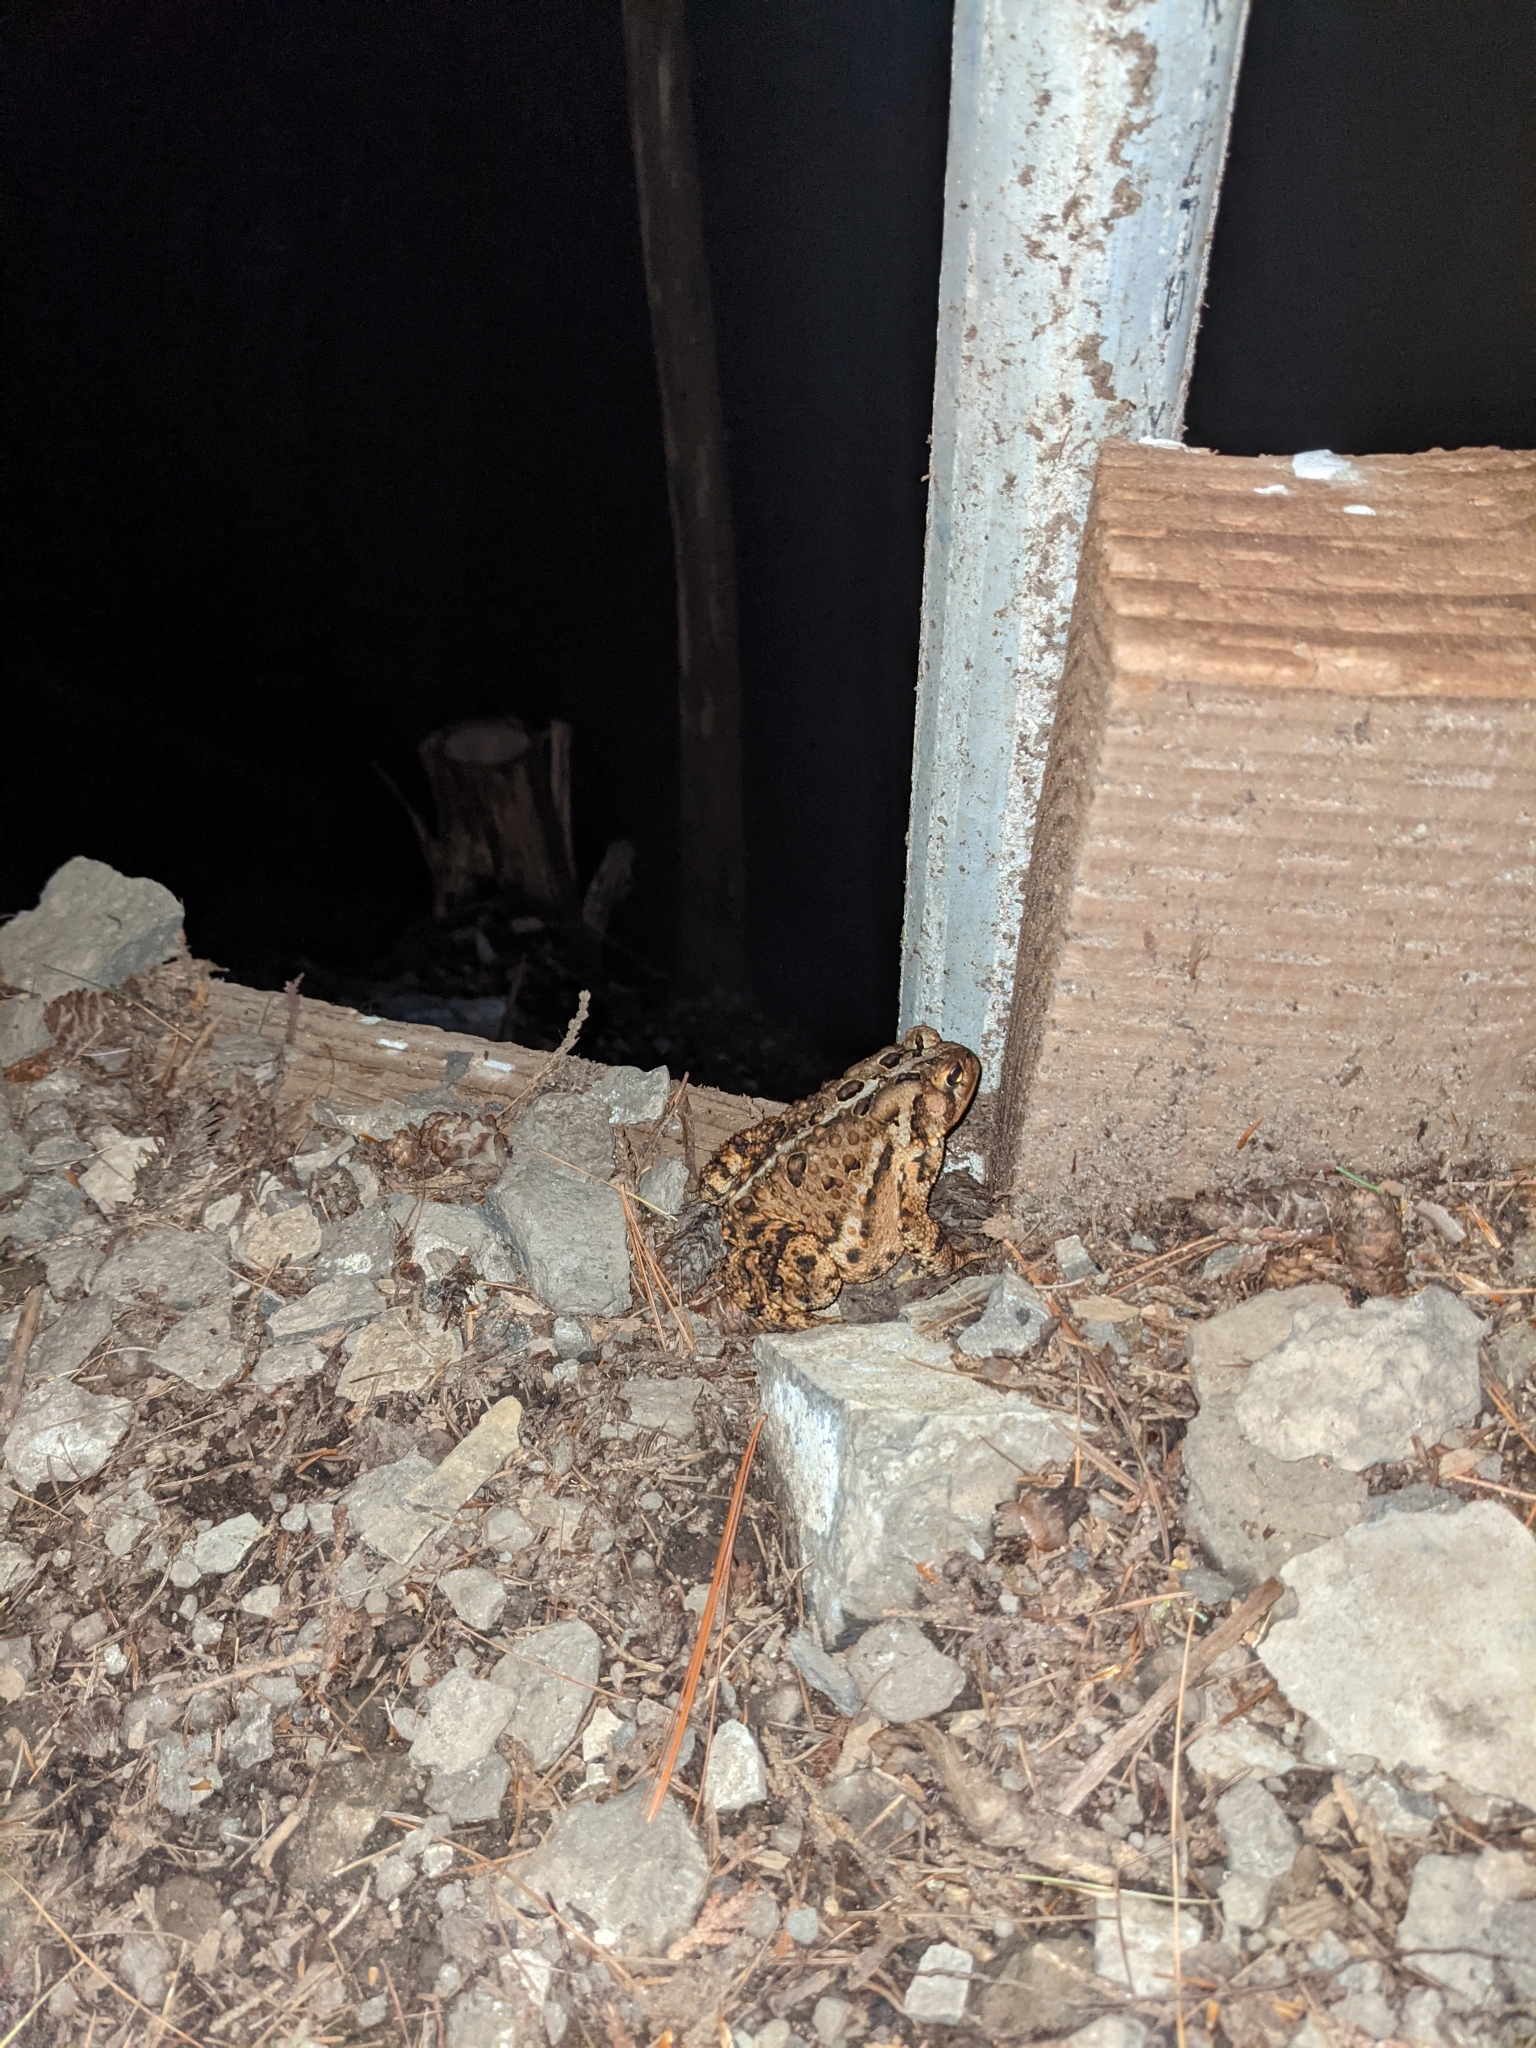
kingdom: Animalia
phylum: Chordata
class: Amphibia
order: Anura
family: Bufonidae
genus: Anaxyrus
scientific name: Anaxyrus americanus
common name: American toad
